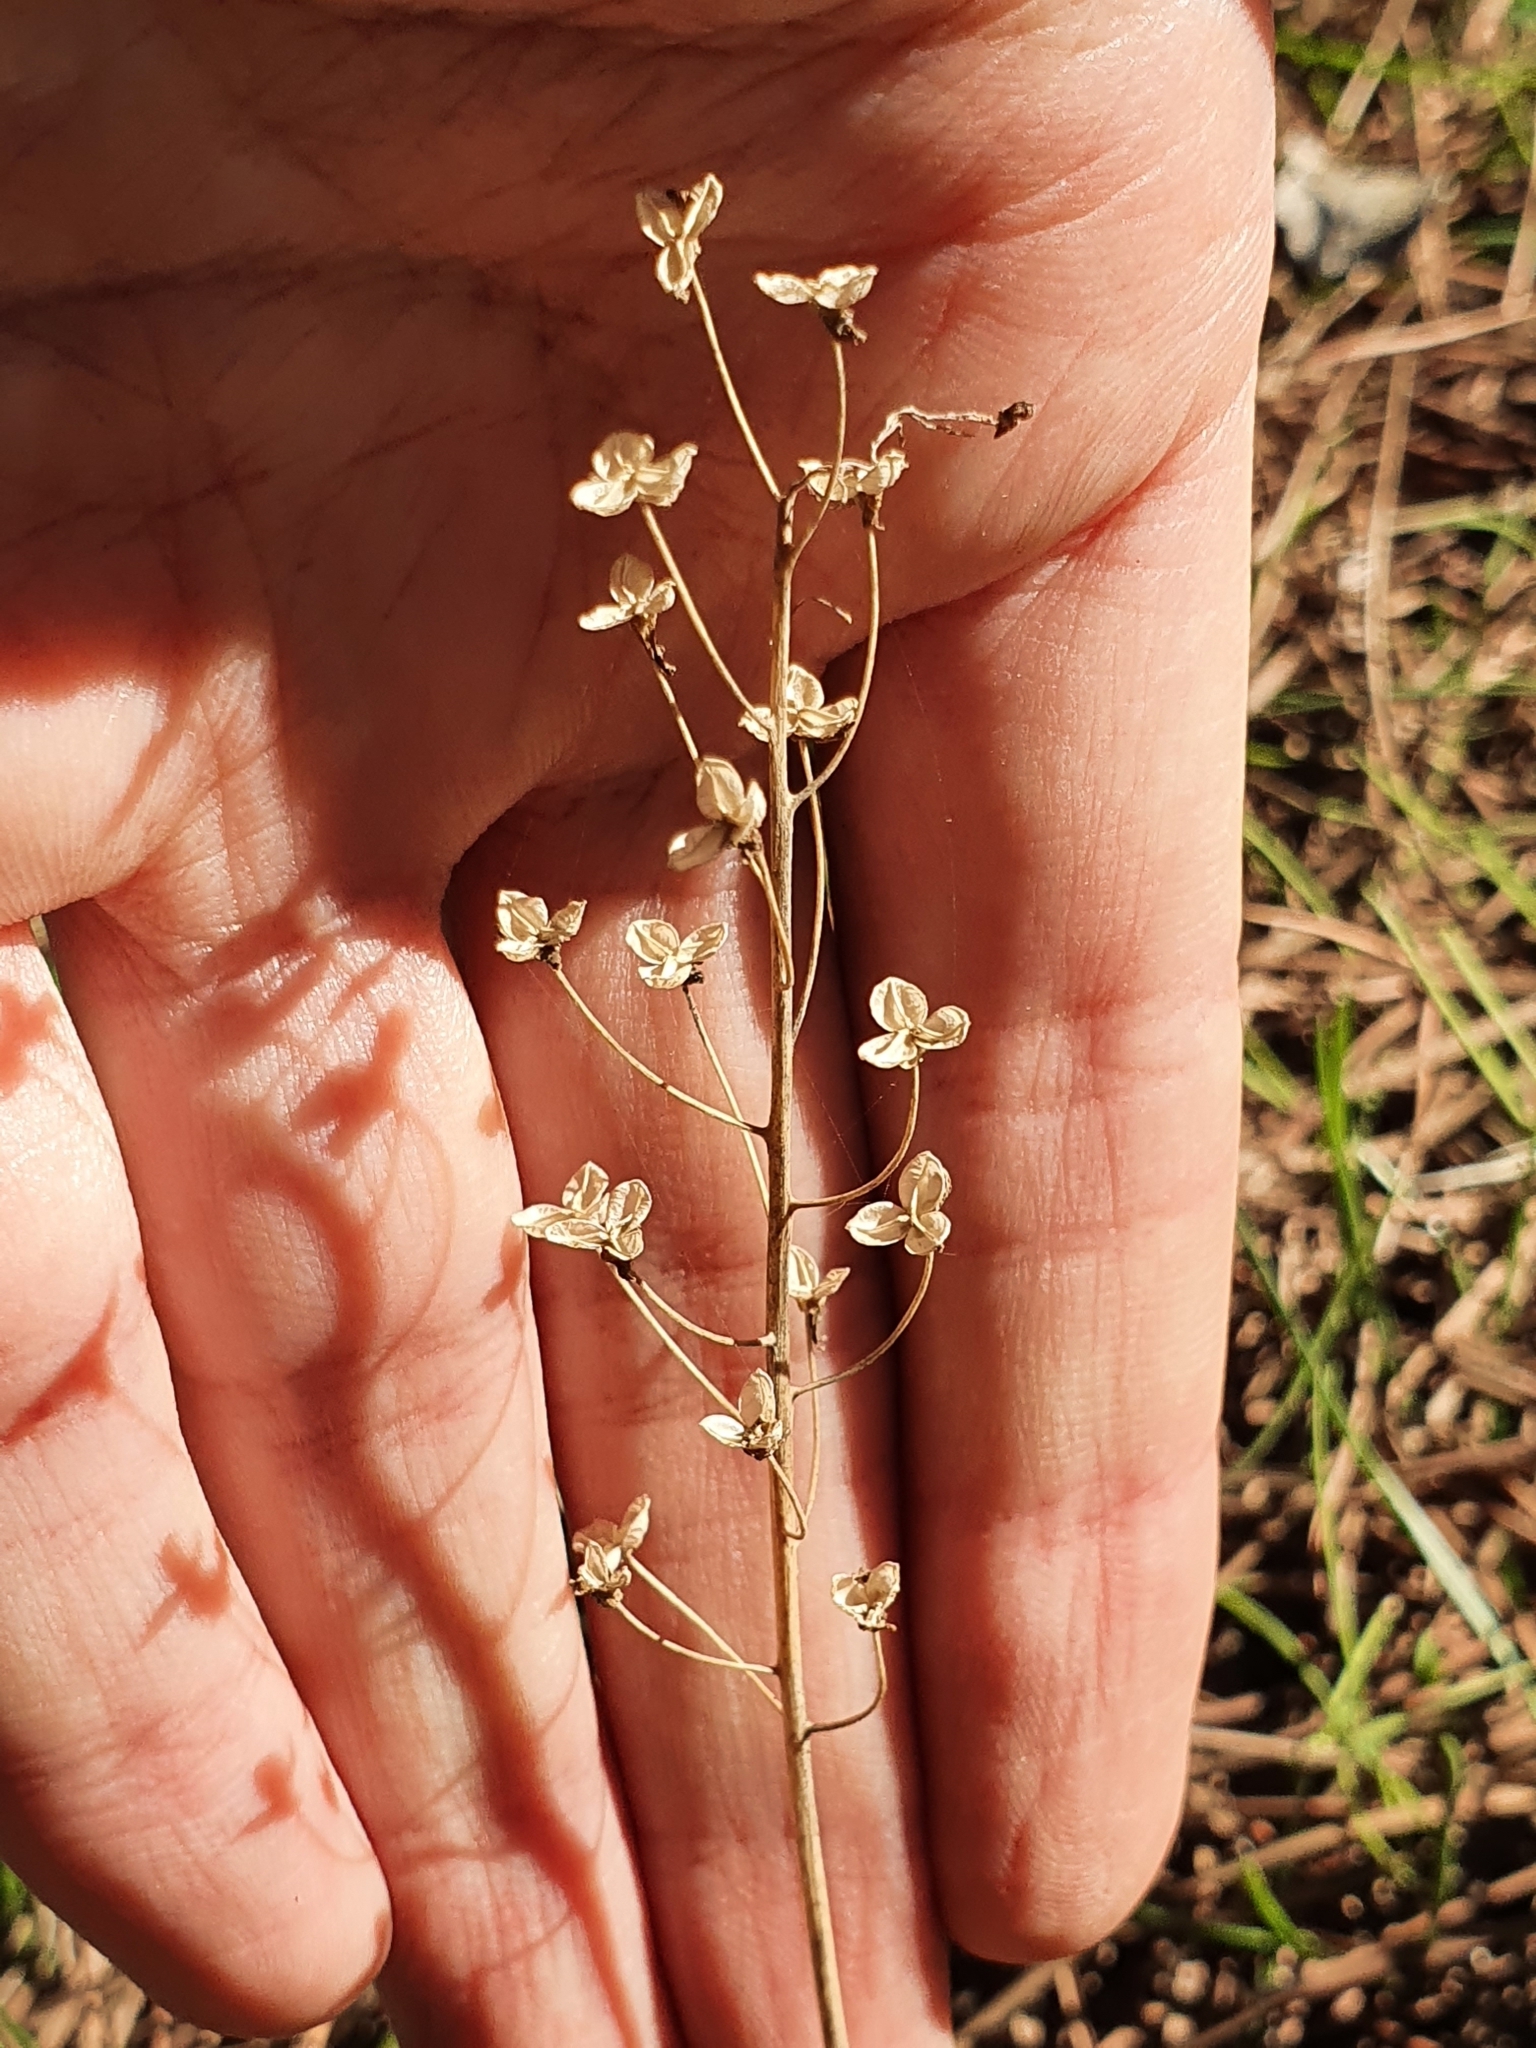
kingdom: Plantae
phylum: Tracheophyta
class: Liliopsida
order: Asparagales
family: Asparagaceae
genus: Prospero
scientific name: Prospero fallax
